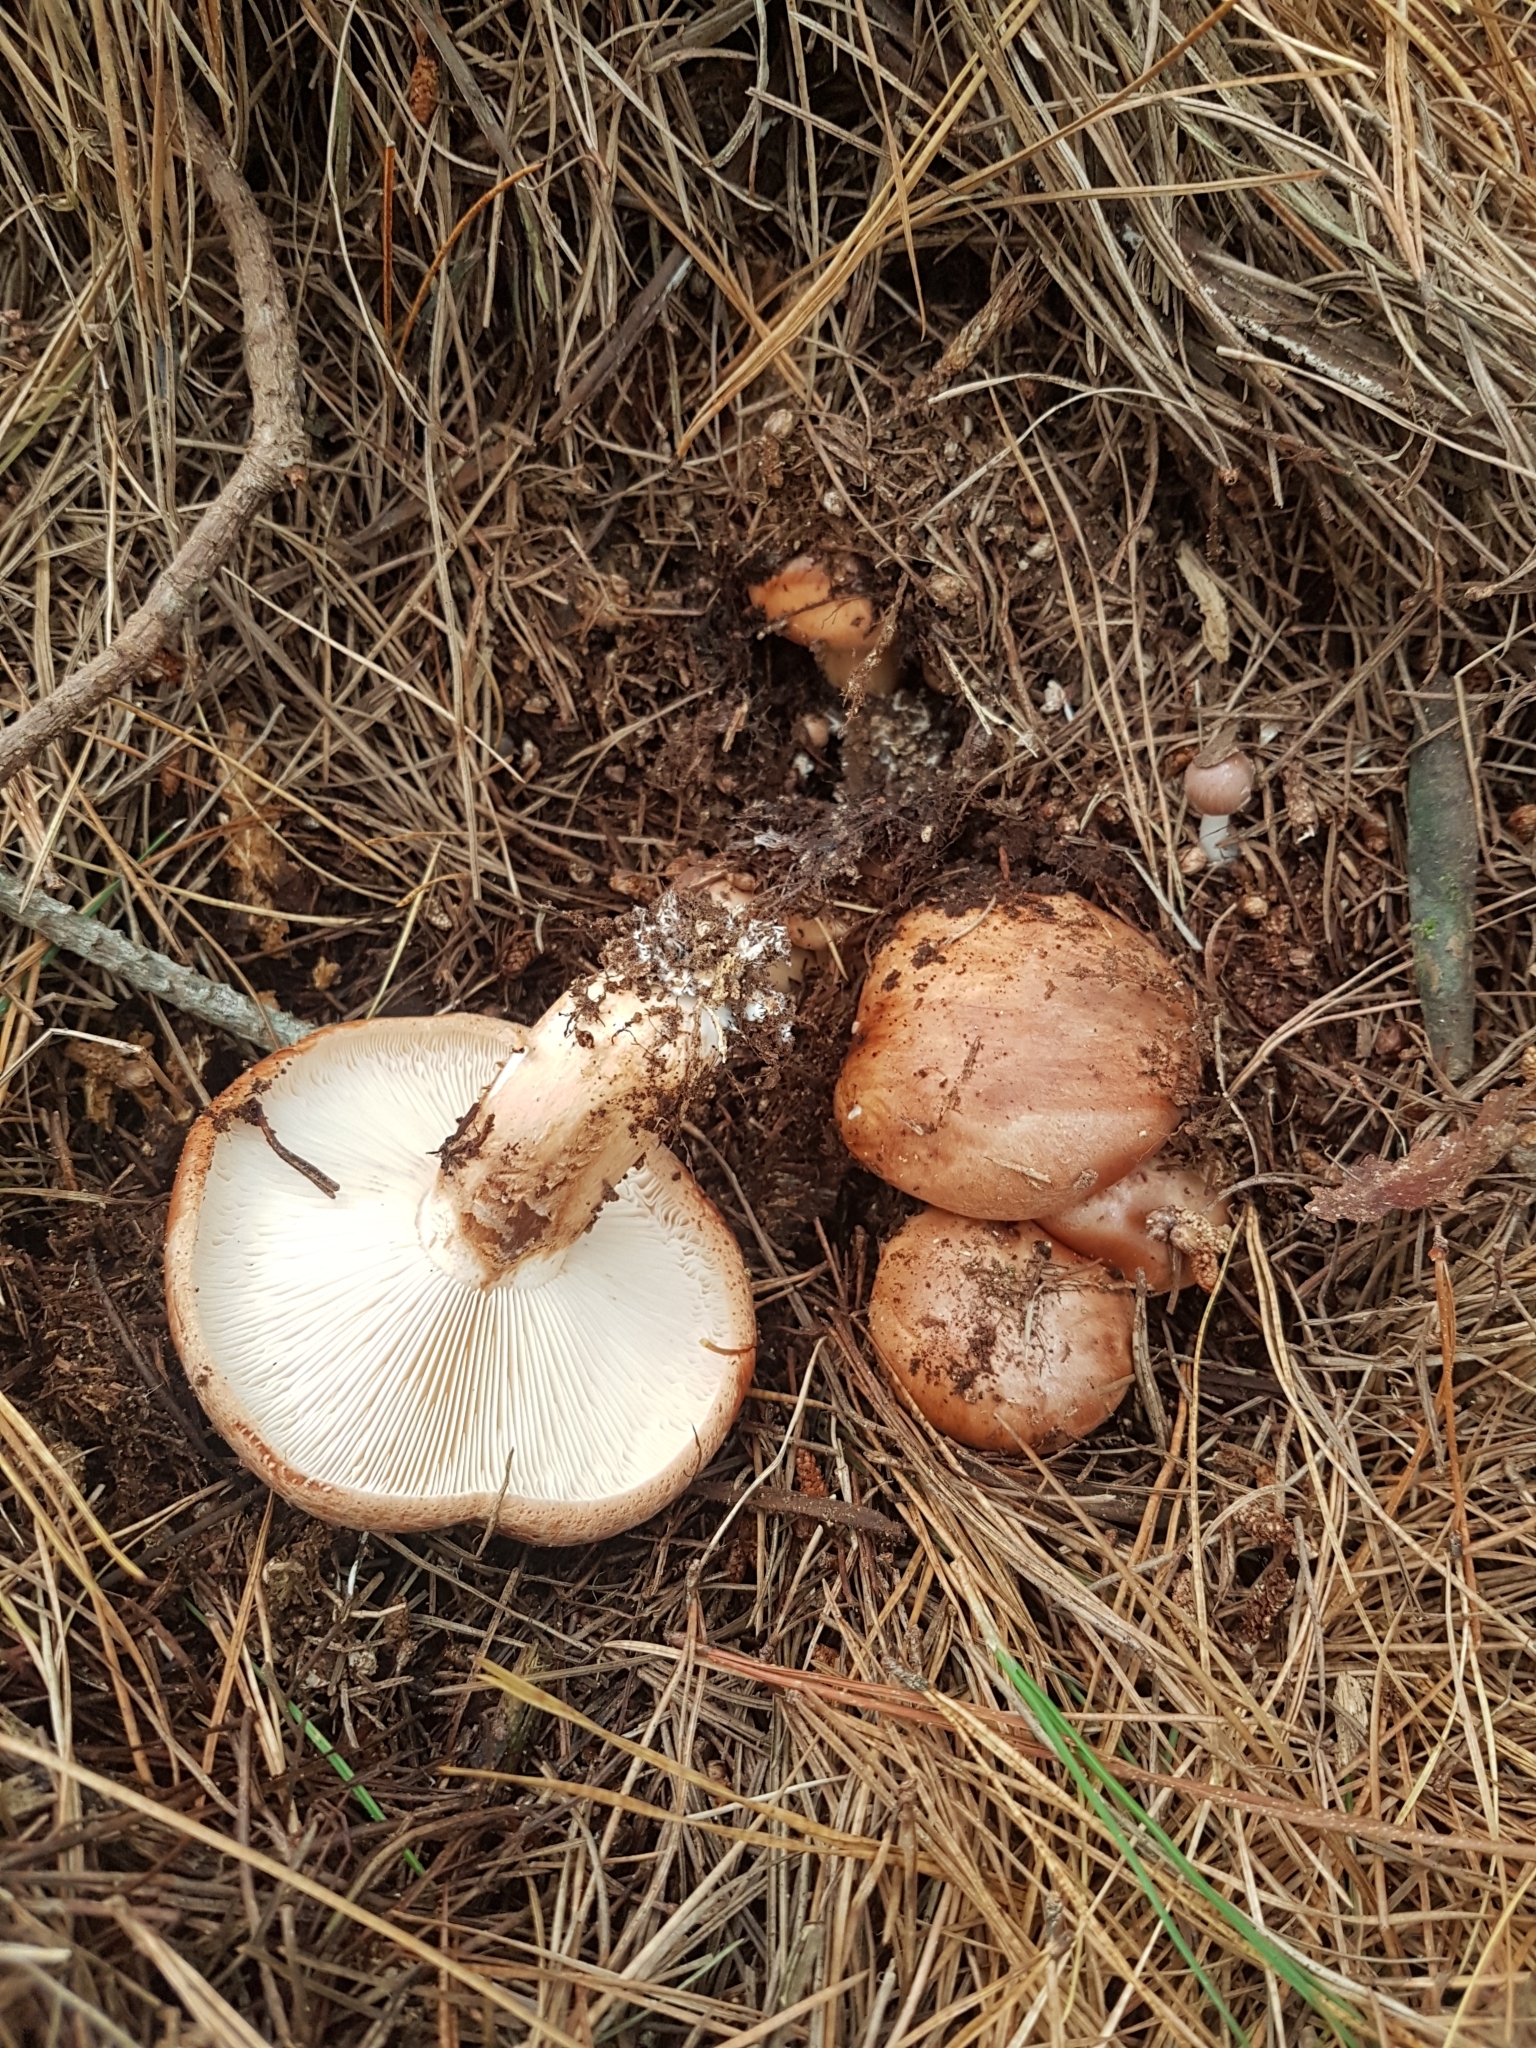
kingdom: Fungi
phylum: Basidiomycota
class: Agaricomycetes
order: Agaricales
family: Tricholomataceae
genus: Tricholoma
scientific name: Tricholoma batschii
